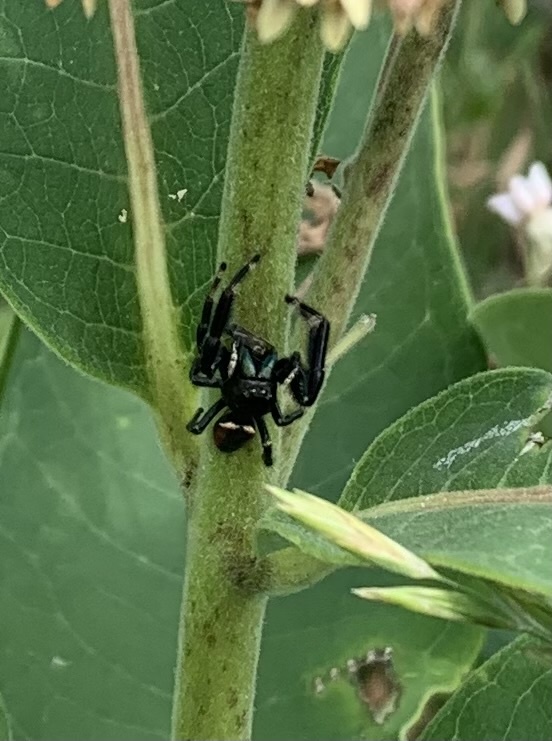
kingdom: Animalia
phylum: Arthropoda
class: Arachnida
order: Araneae
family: Salticidae
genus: Phidippus
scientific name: Phidippus clarus
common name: Brilliant jumping spider
